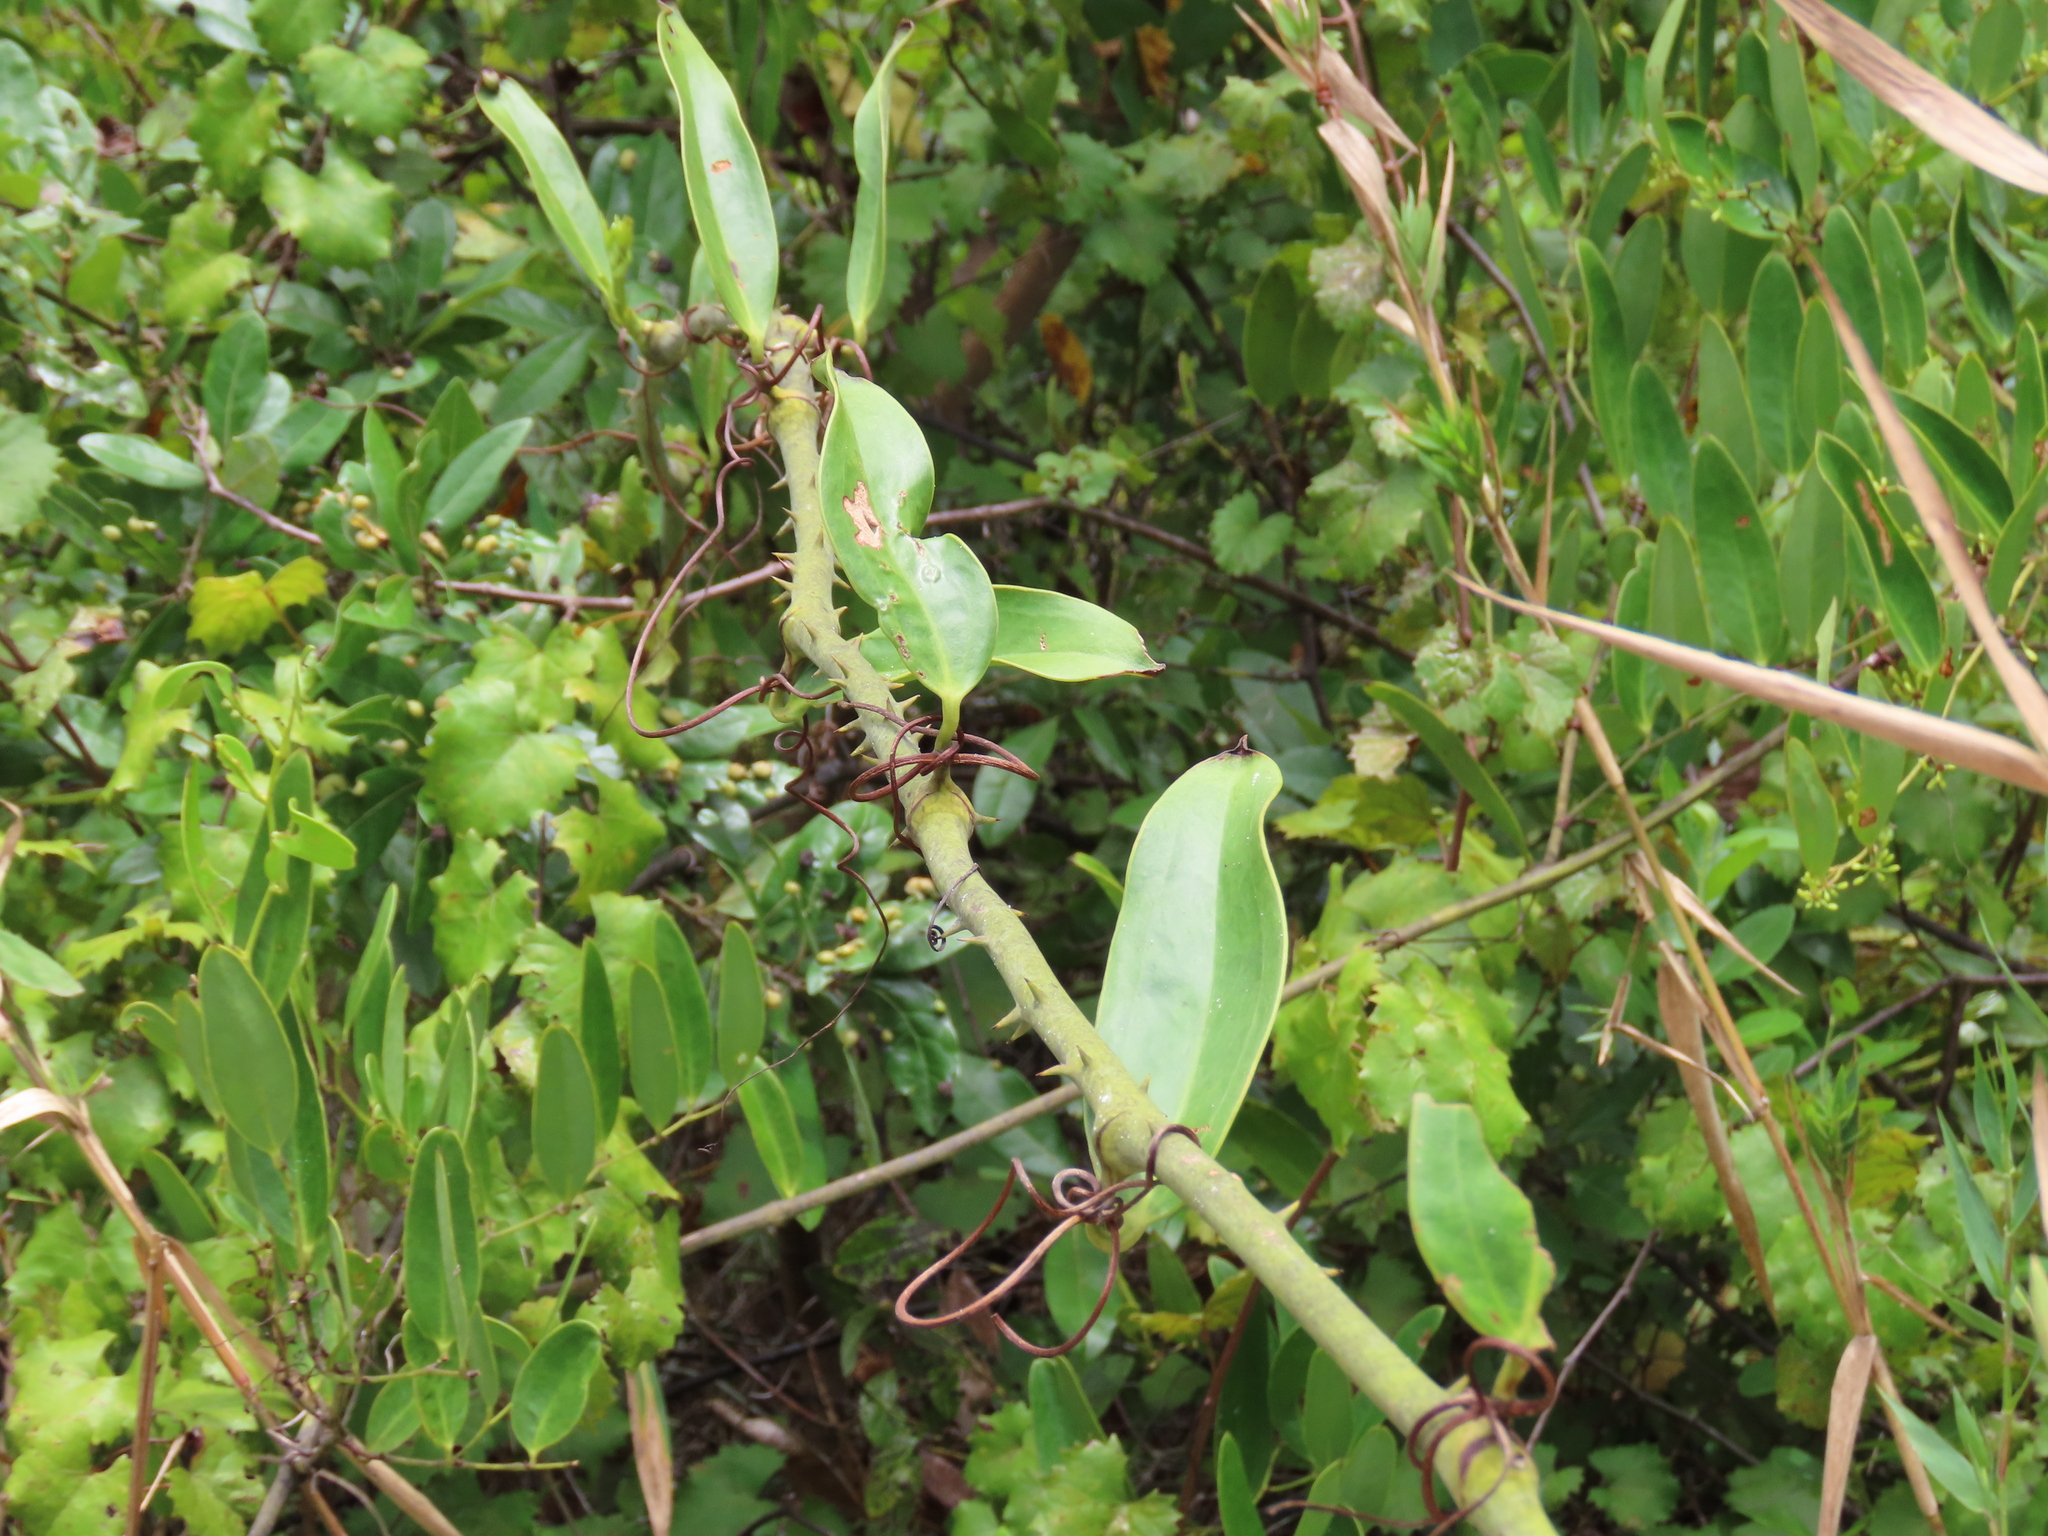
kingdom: Plantae
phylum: Tracheophyta
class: Liliopsida
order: Liliales
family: Smilacaceae
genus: Smilax
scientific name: Smilax laurifolia
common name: Bamboovine
